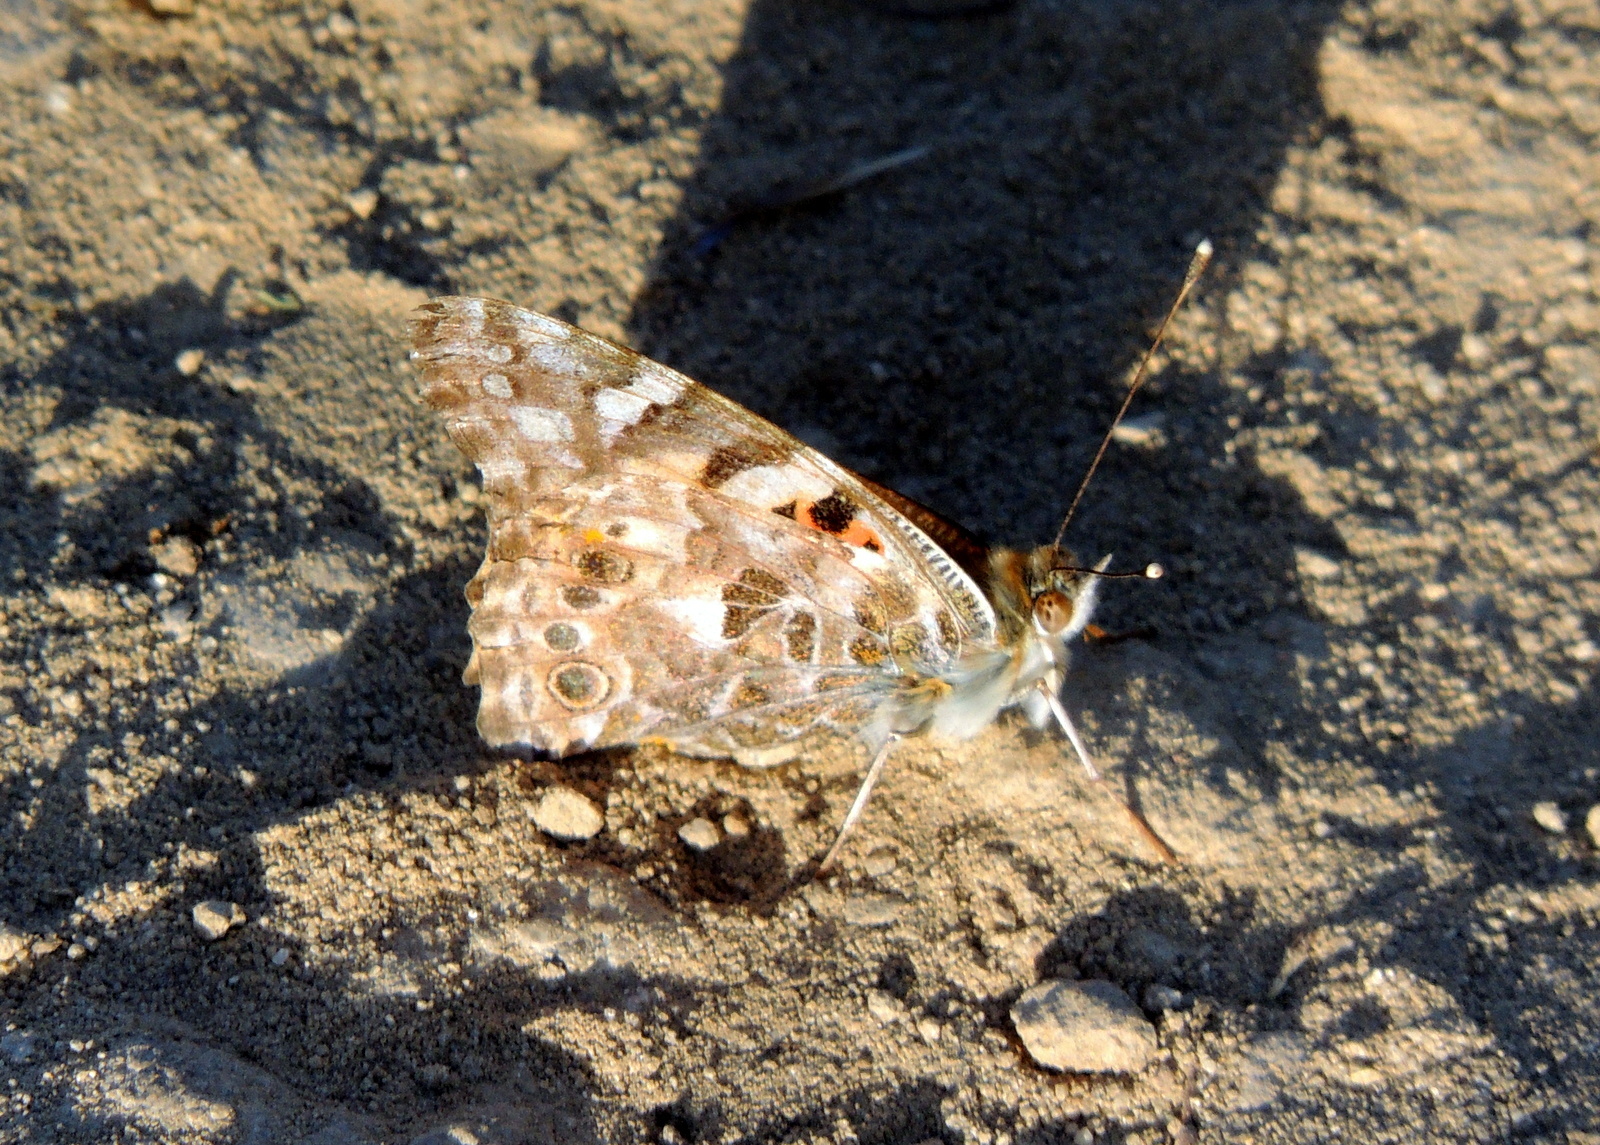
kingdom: Animalia
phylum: Arthropoda
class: Insecta
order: Lepidoptera
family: Nymphalidae
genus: Vanessa
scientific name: Vanessa cardui
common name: Painted lady
